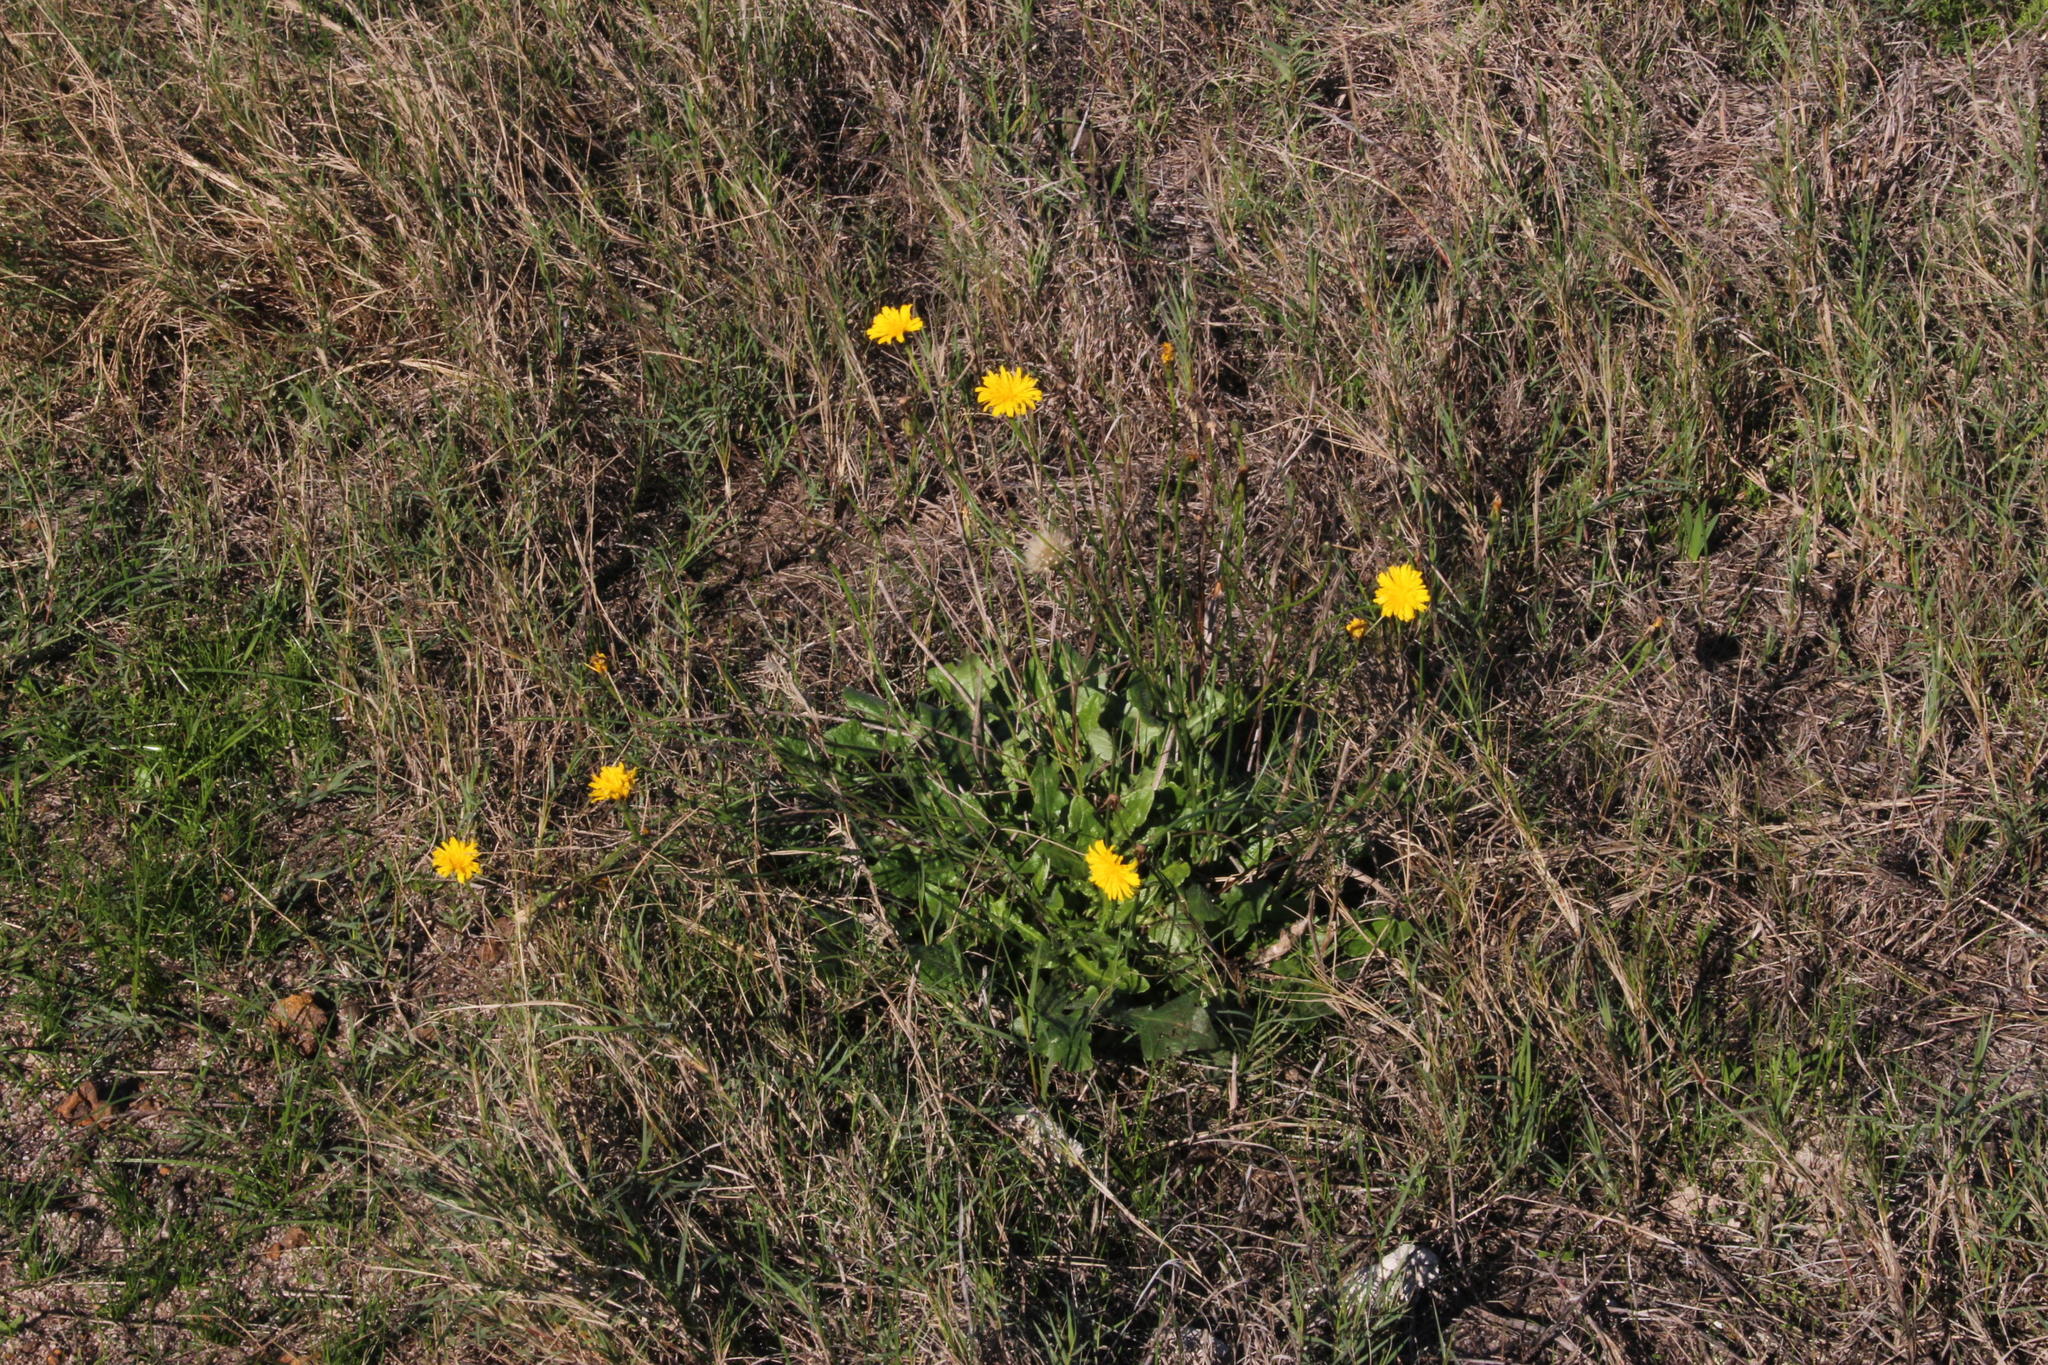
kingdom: Plantae
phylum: Tracheophyta
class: Magnoliopsida
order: Asterales
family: Asteraceae
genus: Hypochaeris
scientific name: Hypochaeris radicata
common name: Flatweed
